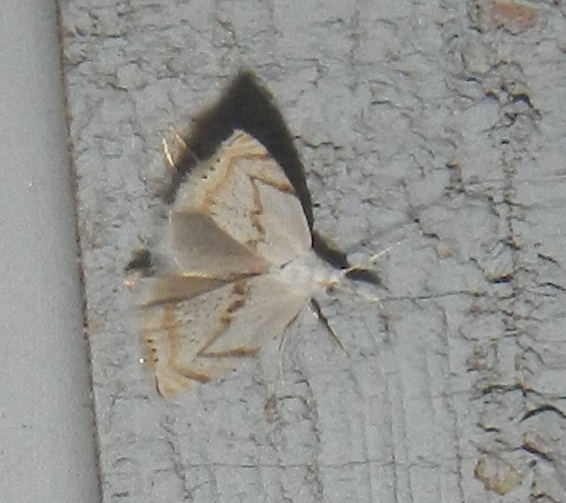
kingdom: Animalia
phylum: Arthropoda
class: Insecta
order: Lepidoptera
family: Crambidae
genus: Crambus
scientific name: Crambus albellus
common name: Small white grass-veneer
